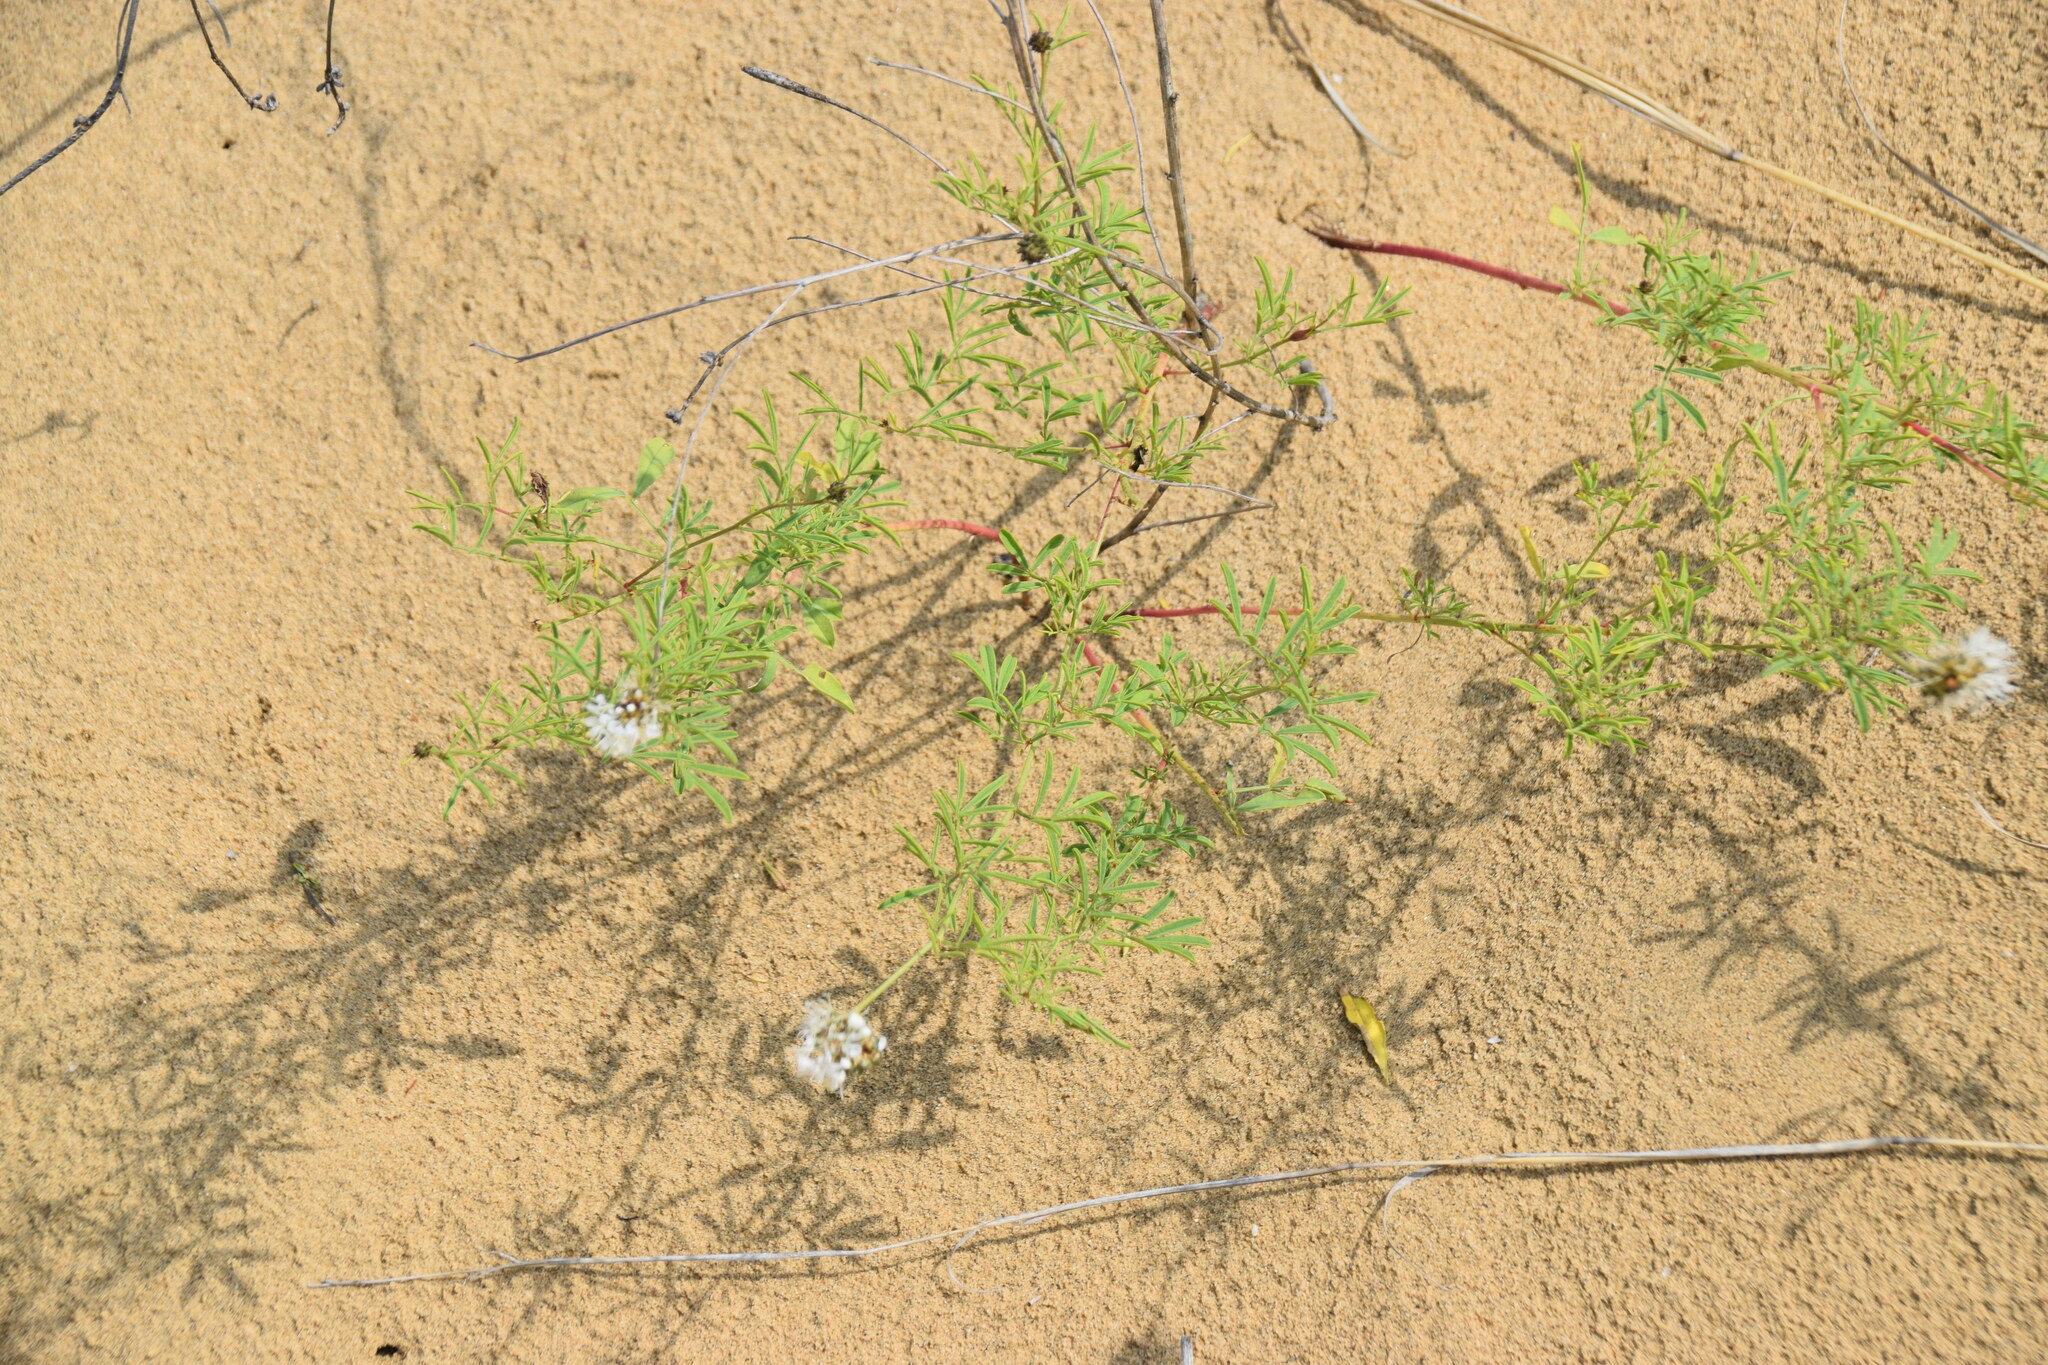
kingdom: Plantae
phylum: Tracheophyta
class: Magnoliopsida
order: Fabales
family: Fabaceae
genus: Dalea
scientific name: Dalea candida
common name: White prairie-clover
